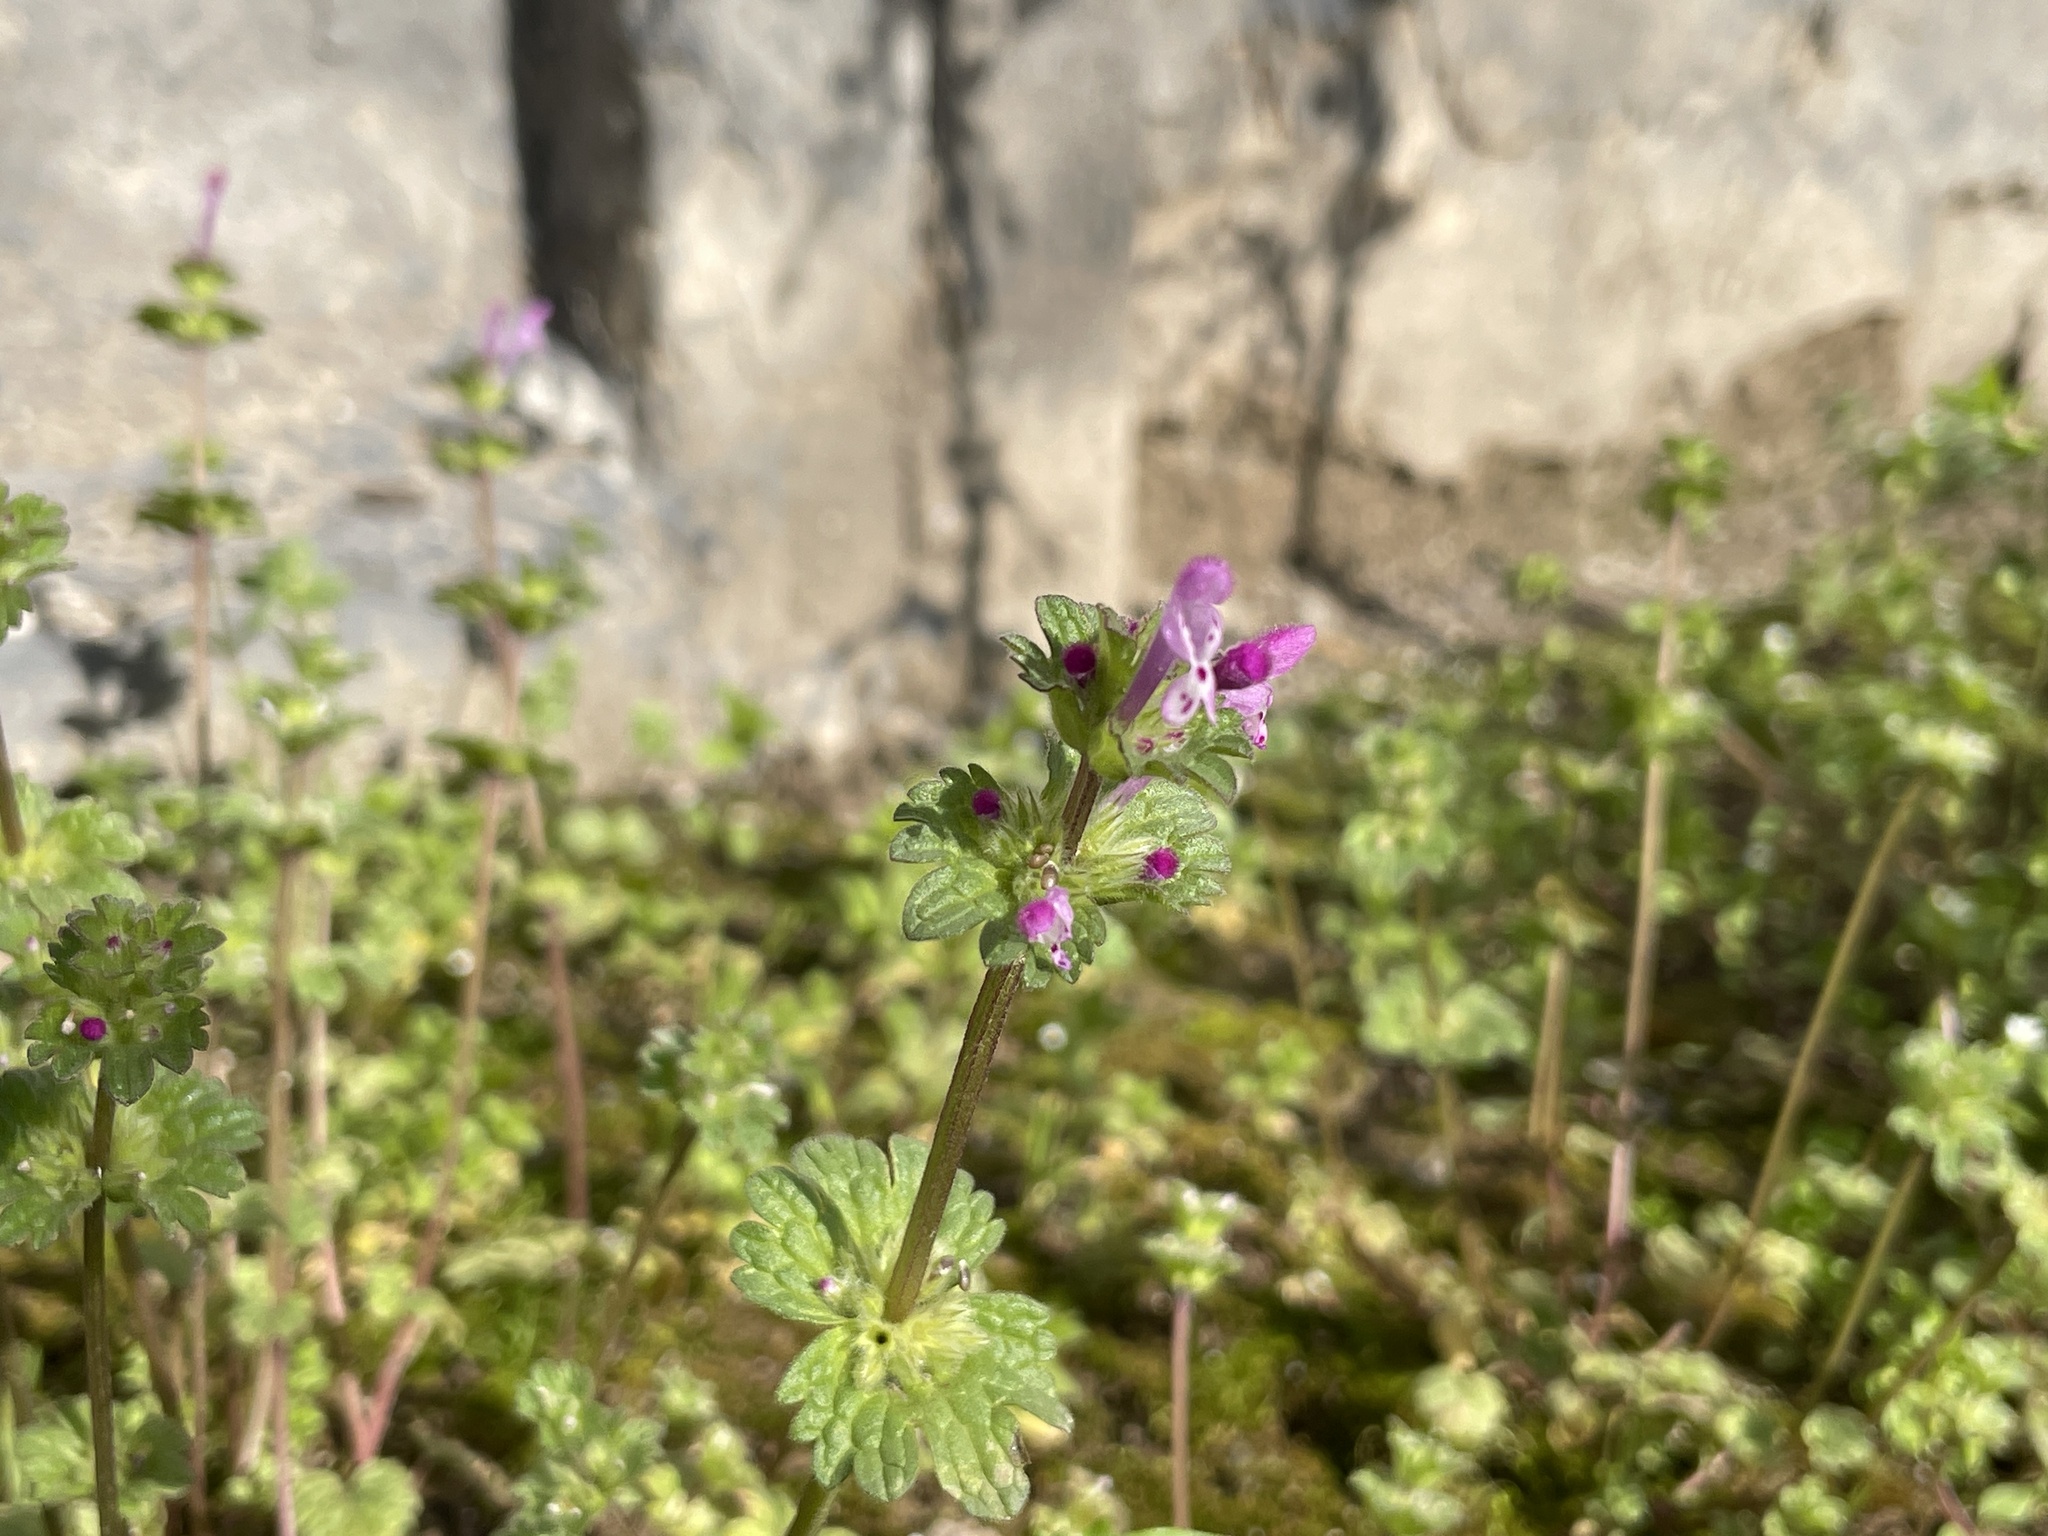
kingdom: Plantae
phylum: Tracheophyta
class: Magnoliopsida
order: Lamiales
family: Lamiaceae
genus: Lamium
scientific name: Lamium amplexicaule
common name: Henbit dead-nettle
